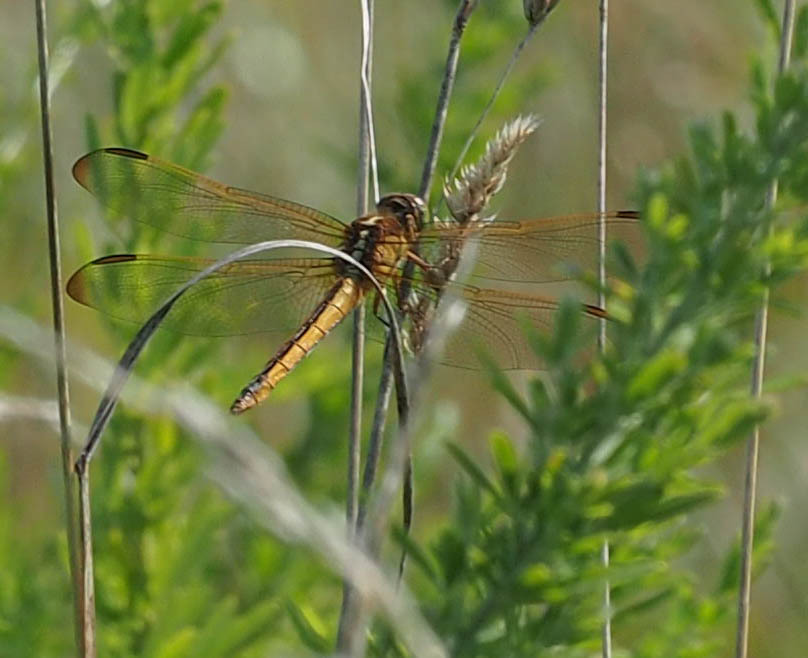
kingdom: Animalia
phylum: Arthropoda
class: Insecta
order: Odonata
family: Libellulidae
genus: Libellula
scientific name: Libellula needhami
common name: Needham's skimmer
